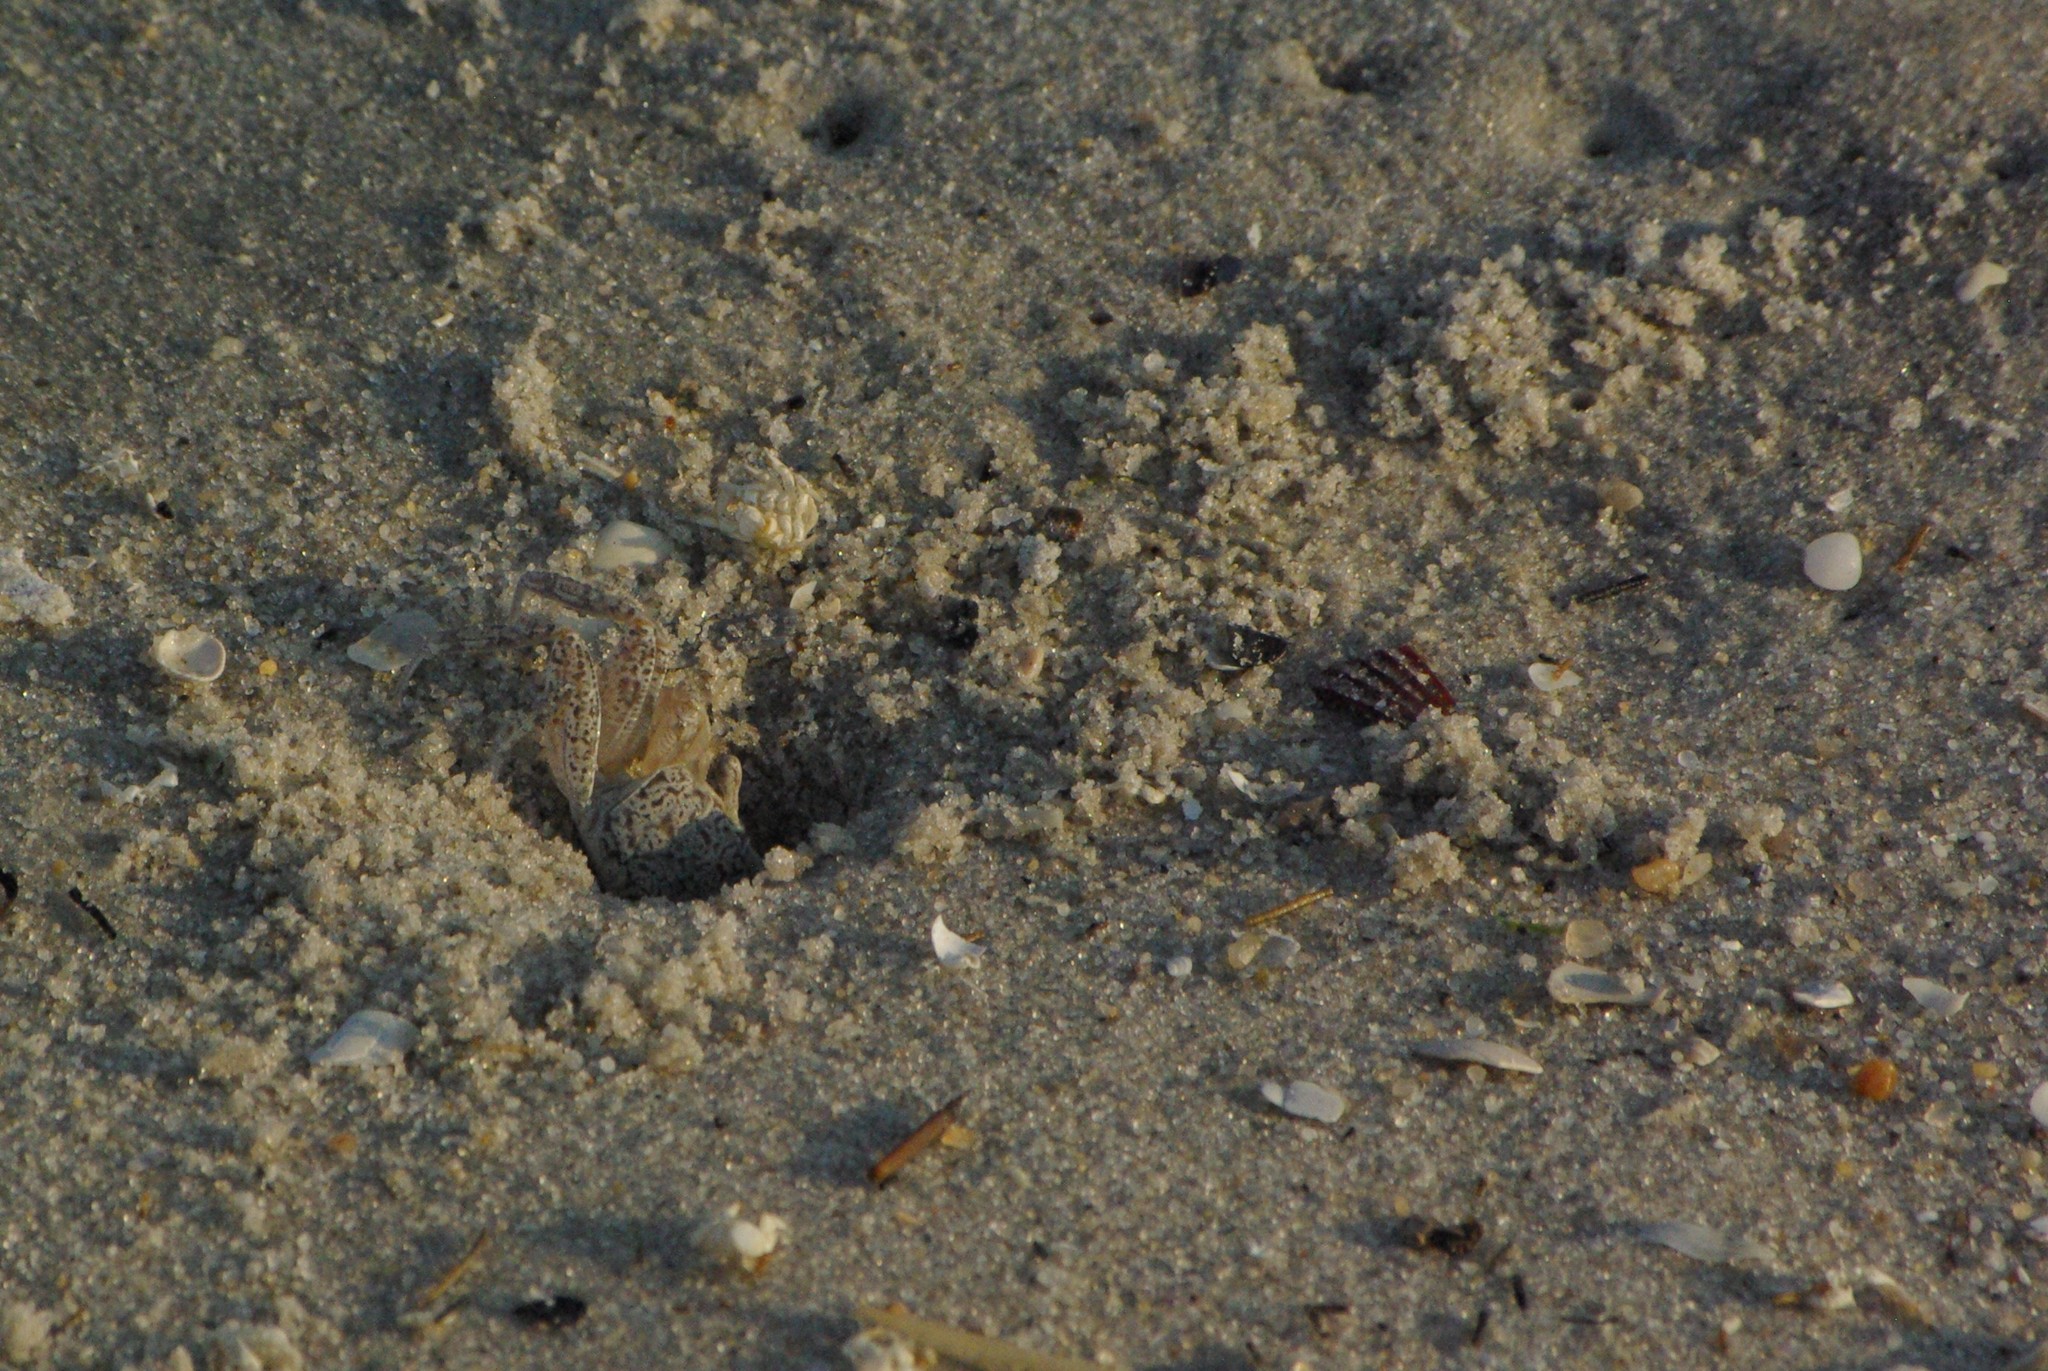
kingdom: Animalia
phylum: Arthropoda
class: Malacostraca
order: Decapoda
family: Ocypodidae
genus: Ocypode
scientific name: Ocypode quadrata
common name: Ghost crab
